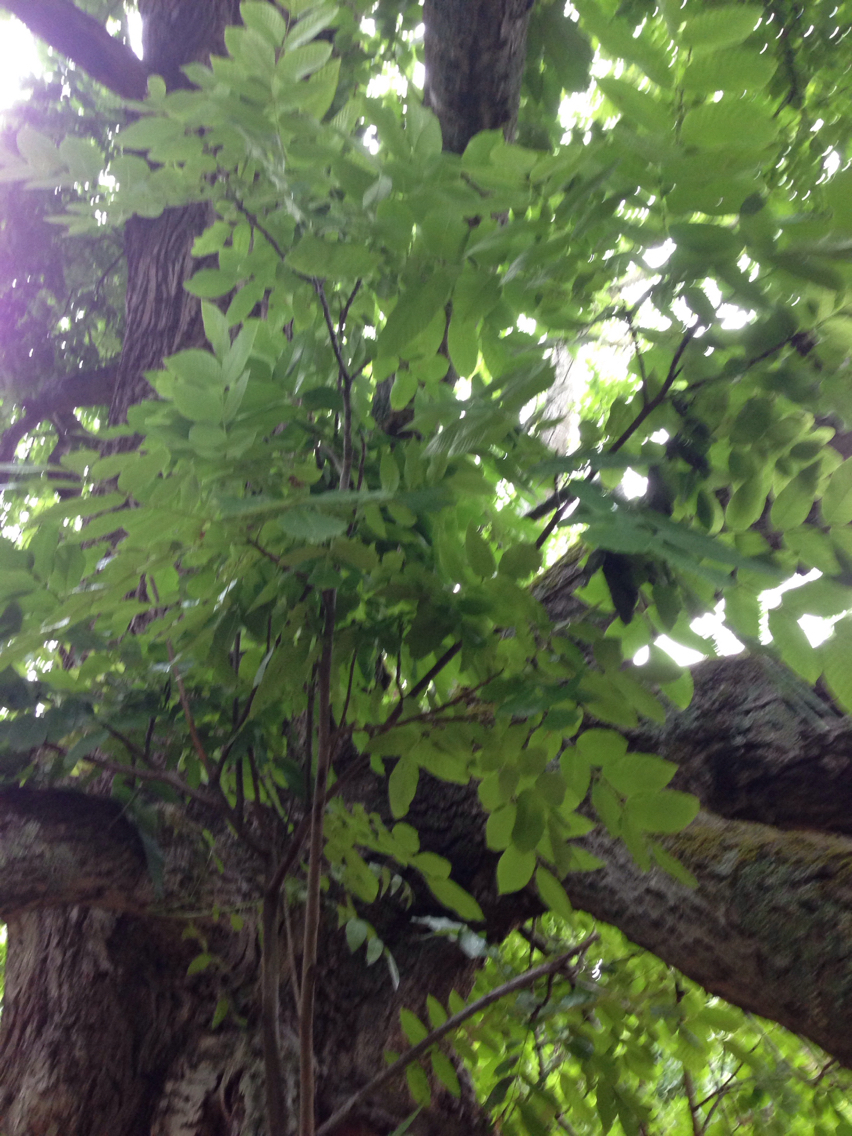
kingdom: Plantae
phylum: Tracheophyta
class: Magnoliopsida
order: Fagales
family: Juglandaceae
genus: Juglans
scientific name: Juglans hindsii
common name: Northern california black walnut
